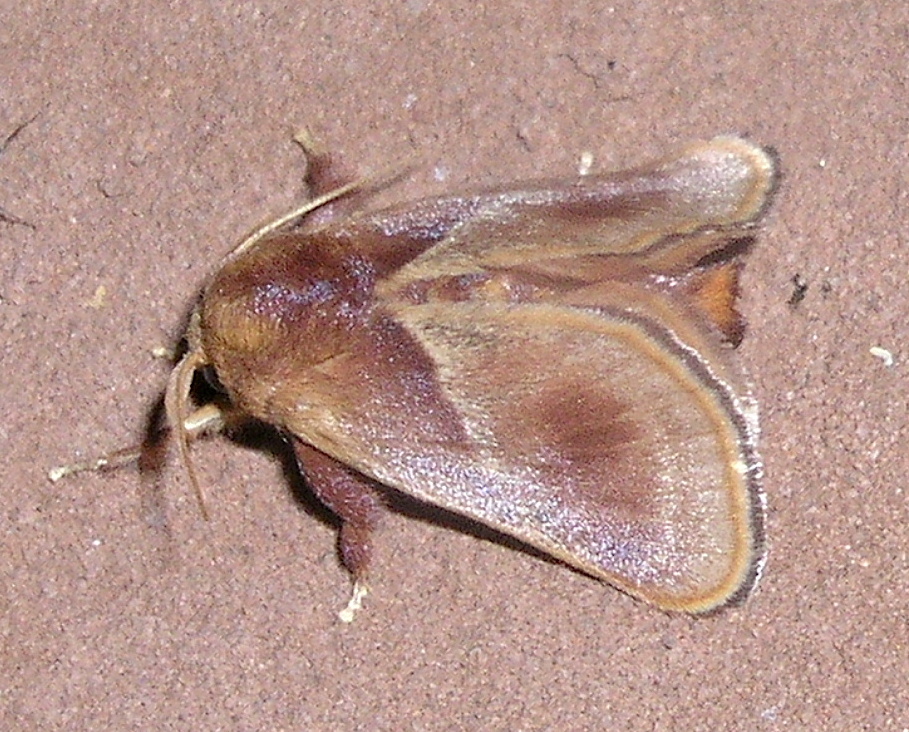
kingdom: Animalia
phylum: Arthropoda
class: Insecta
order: Lepidoptera
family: Limacodidae
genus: Eloasa
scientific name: Eloasa bombycoides
